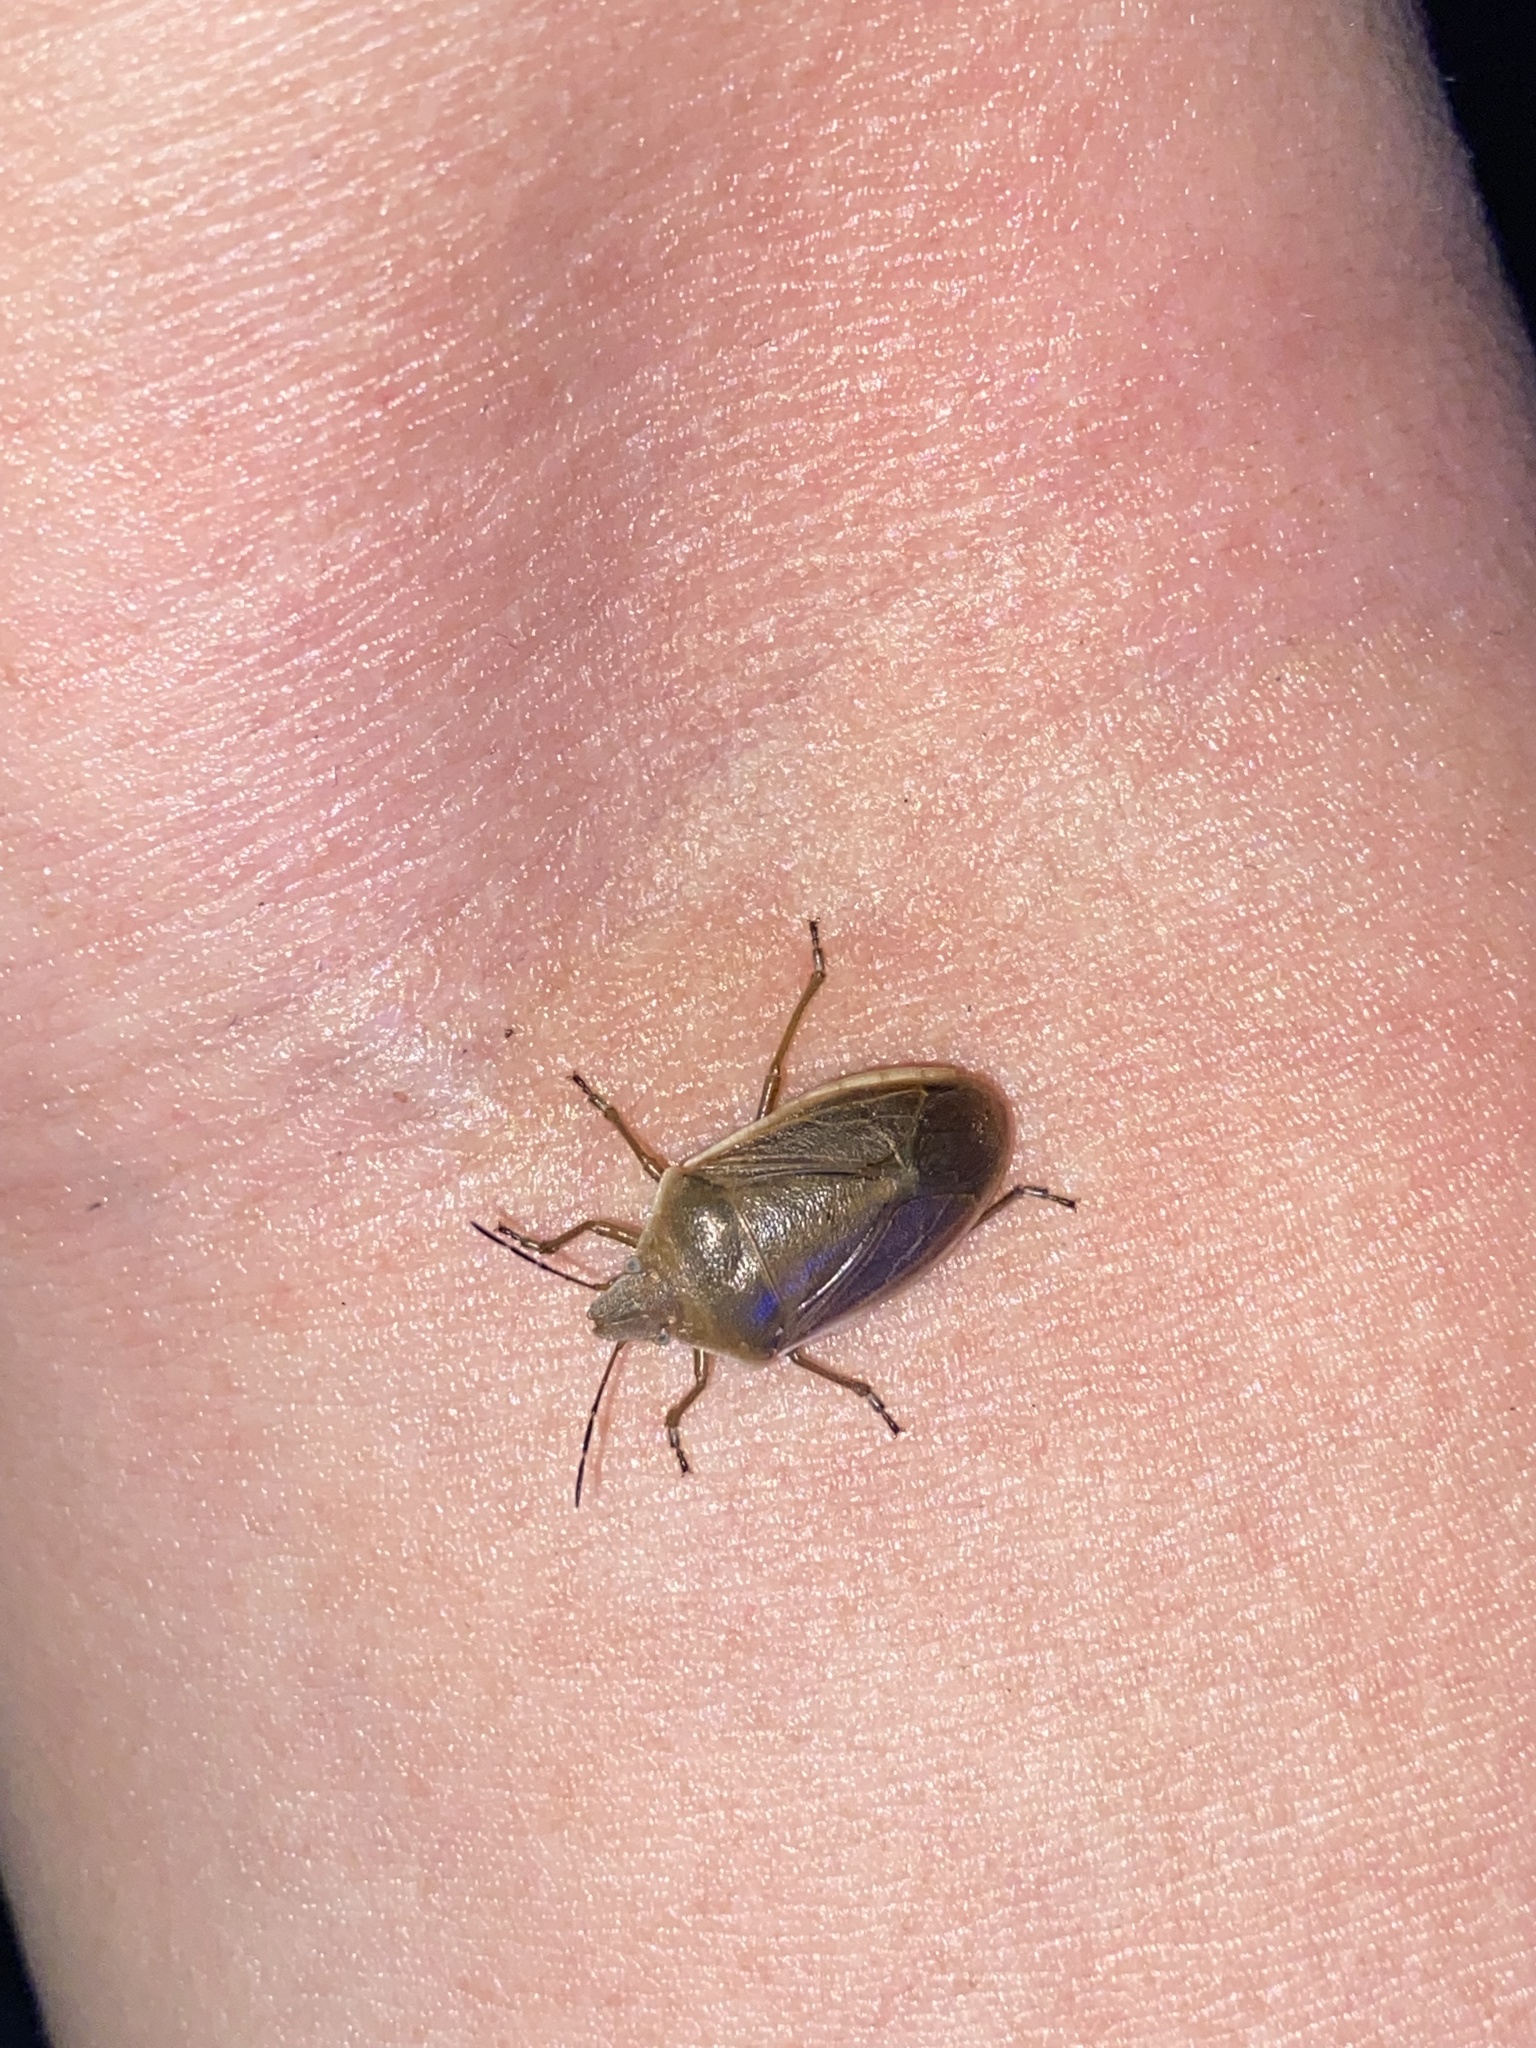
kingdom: Animalia
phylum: Arthropoda
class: Insecta
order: Hemiptera
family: Pentatomidae
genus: Chlorochroa
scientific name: Chlorochroa senilis
